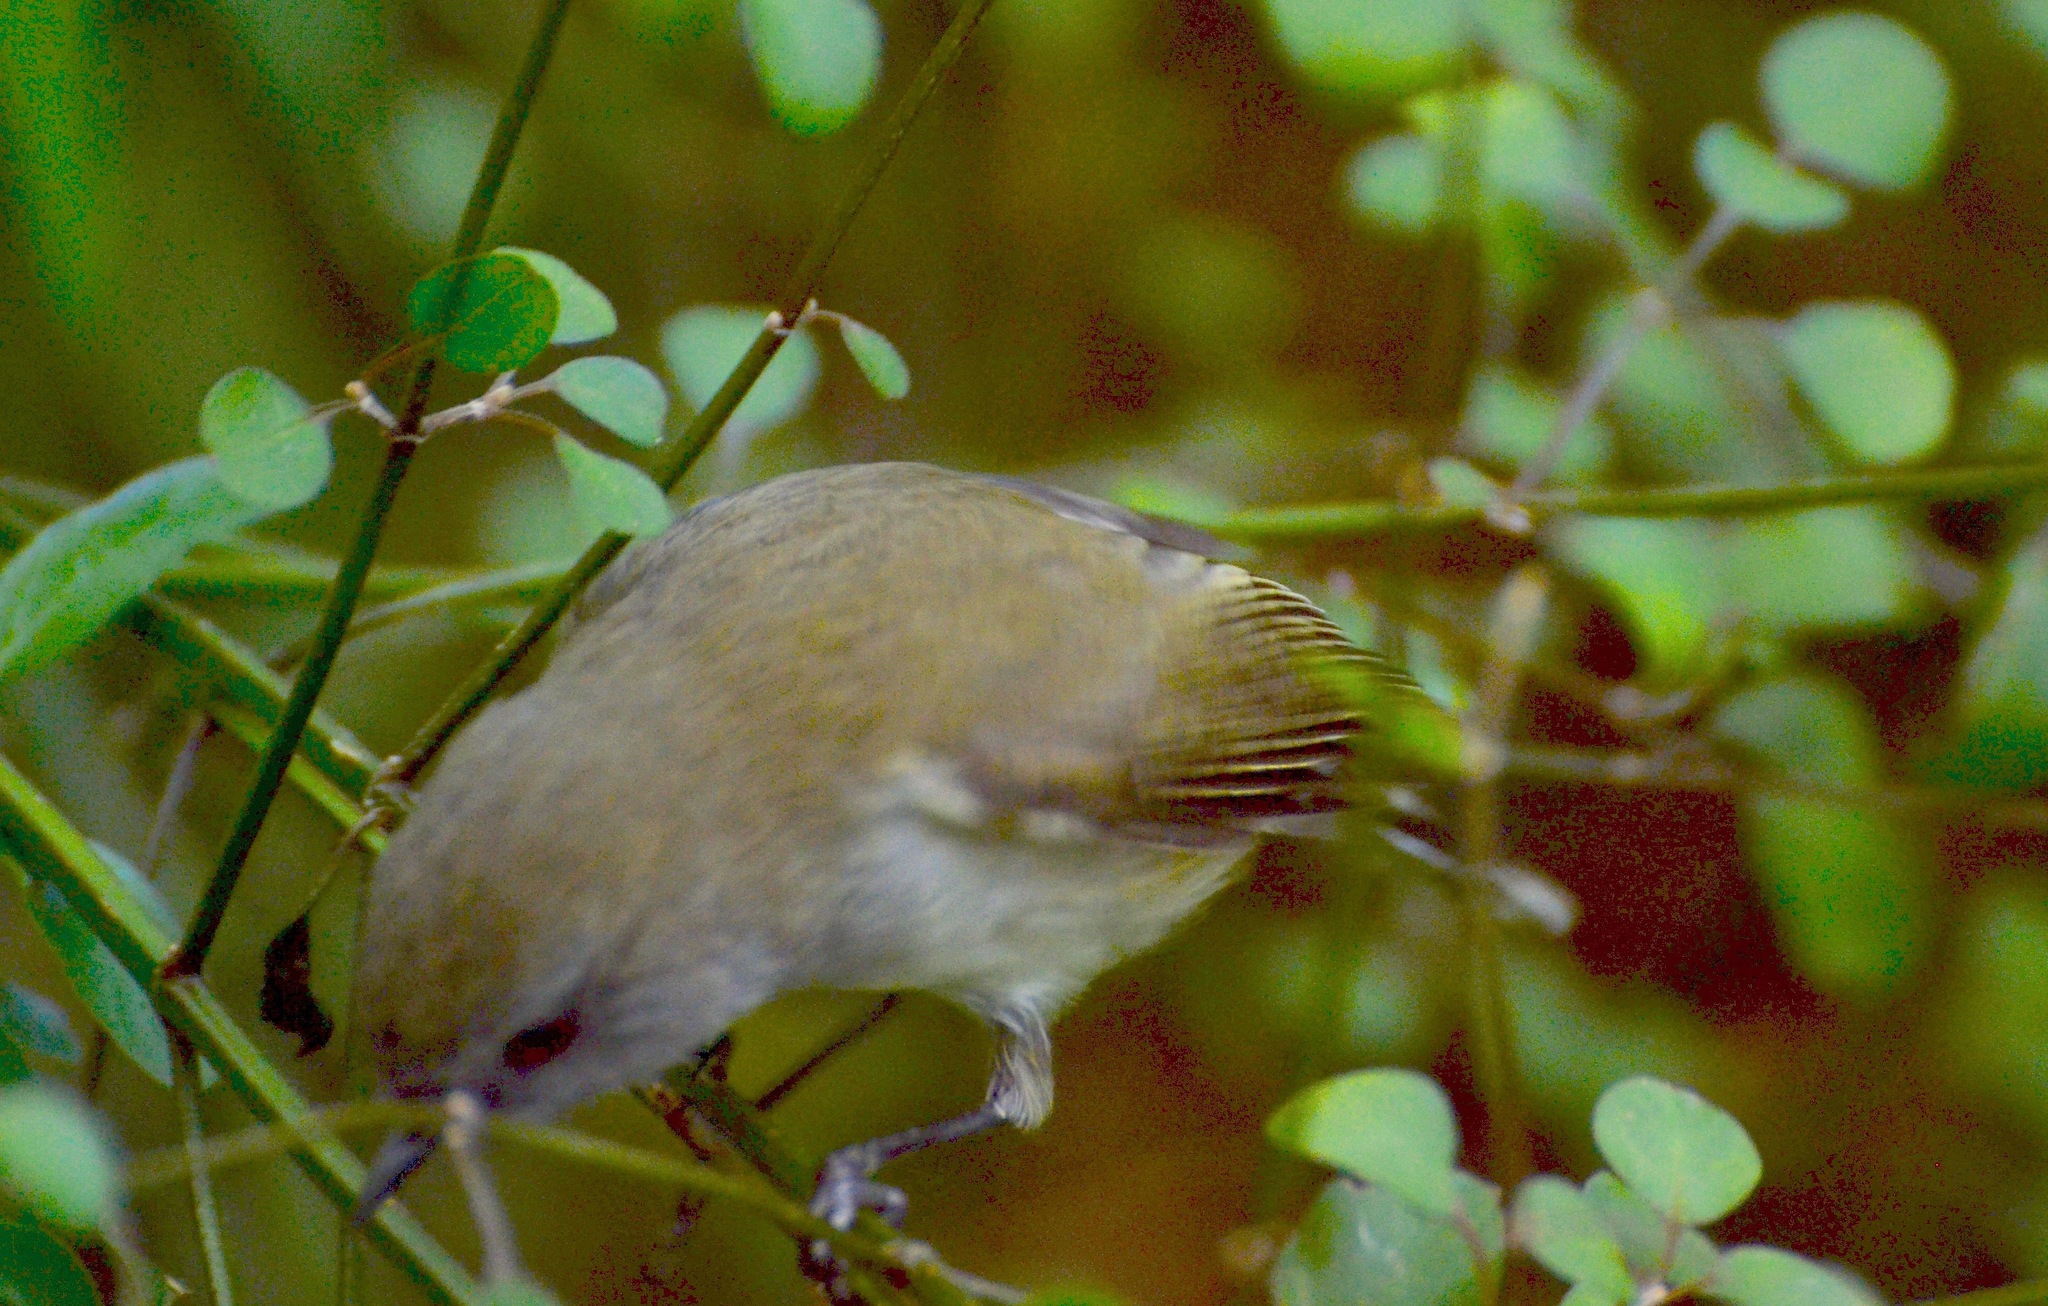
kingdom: Animalia
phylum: Chordata
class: Aves
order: Passeriformes
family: Acanthizidae
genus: Gerygone
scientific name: Gerygone igata
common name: Grey gerygone
